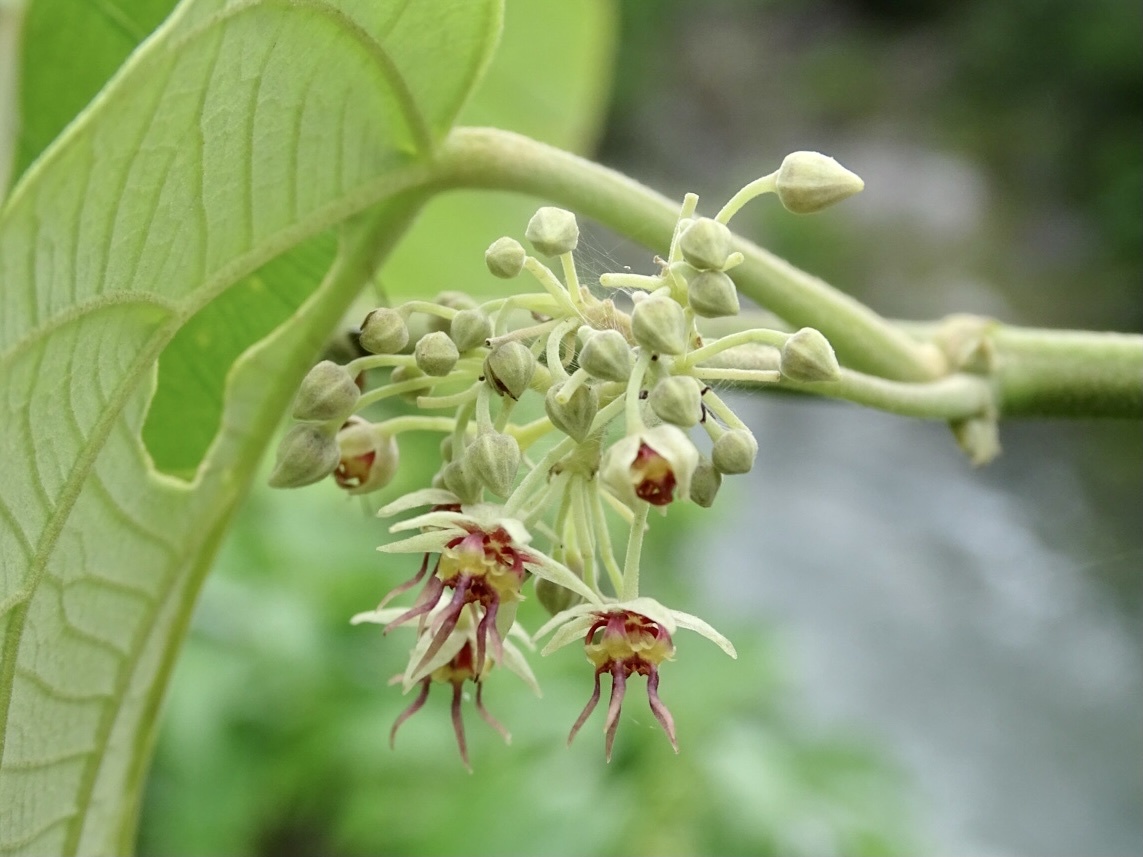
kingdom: Plantae
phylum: Tracheophyta
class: Magnoliopsida
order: Malvales
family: Malvaceae
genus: Byttneria
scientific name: Byttneria grandifolia
